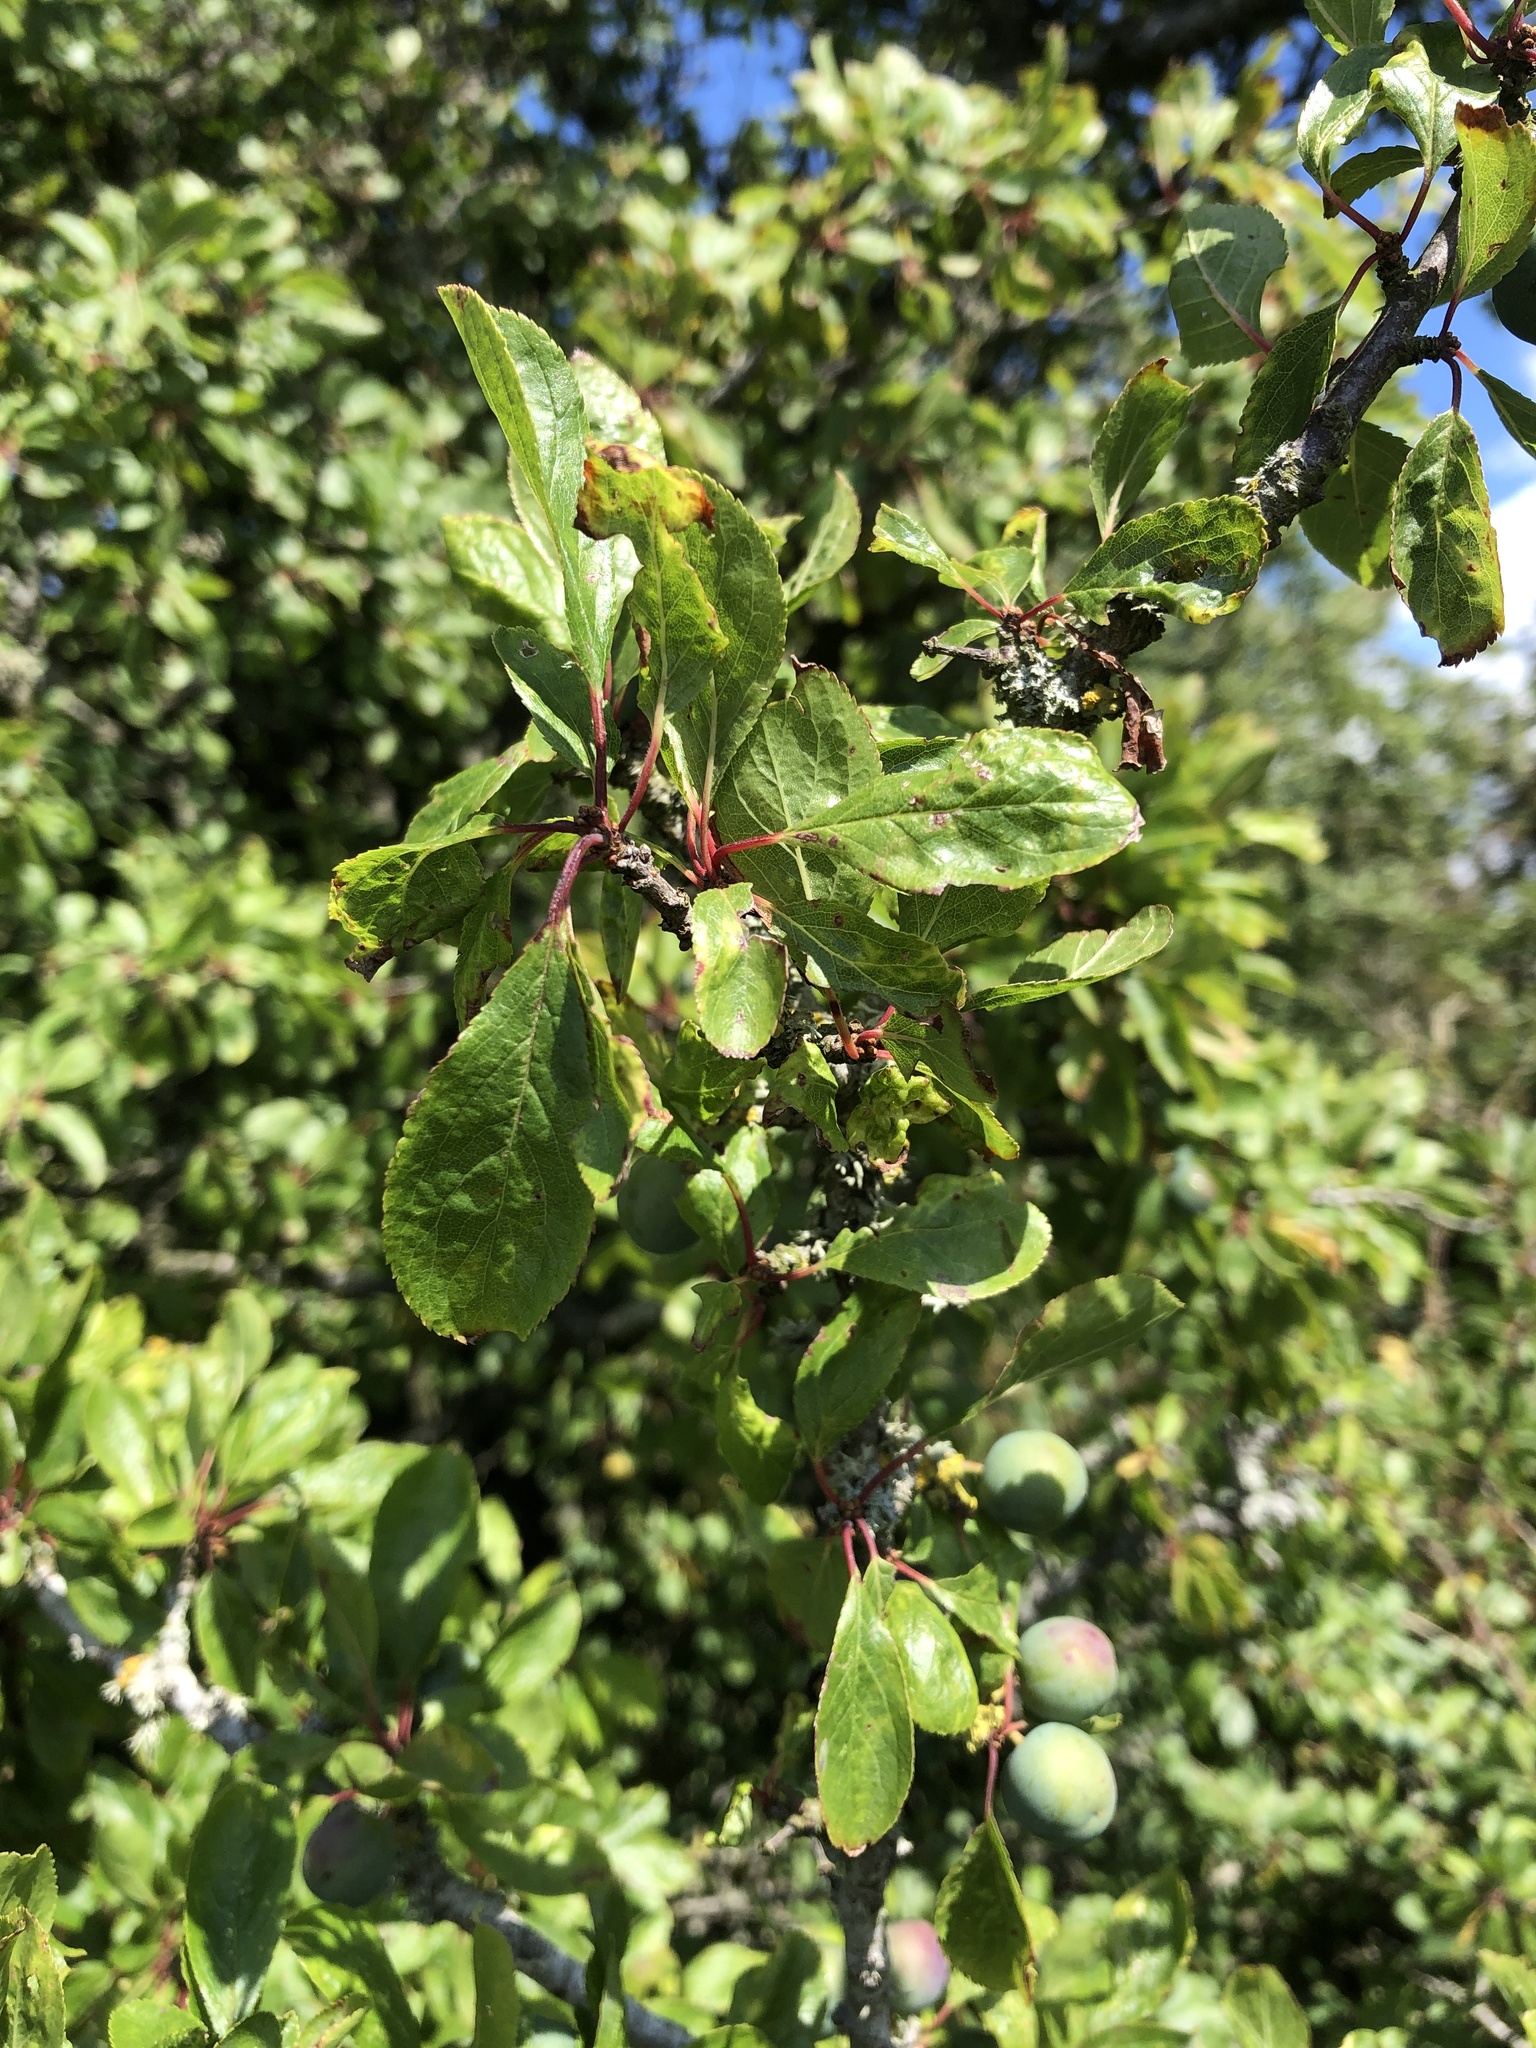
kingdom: Plantae
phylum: Tracheophyta
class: Magnoliopsida
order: Rosales
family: Rosaceae
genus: Prunus
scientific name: Prunus spinosa
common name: Blackthorn
